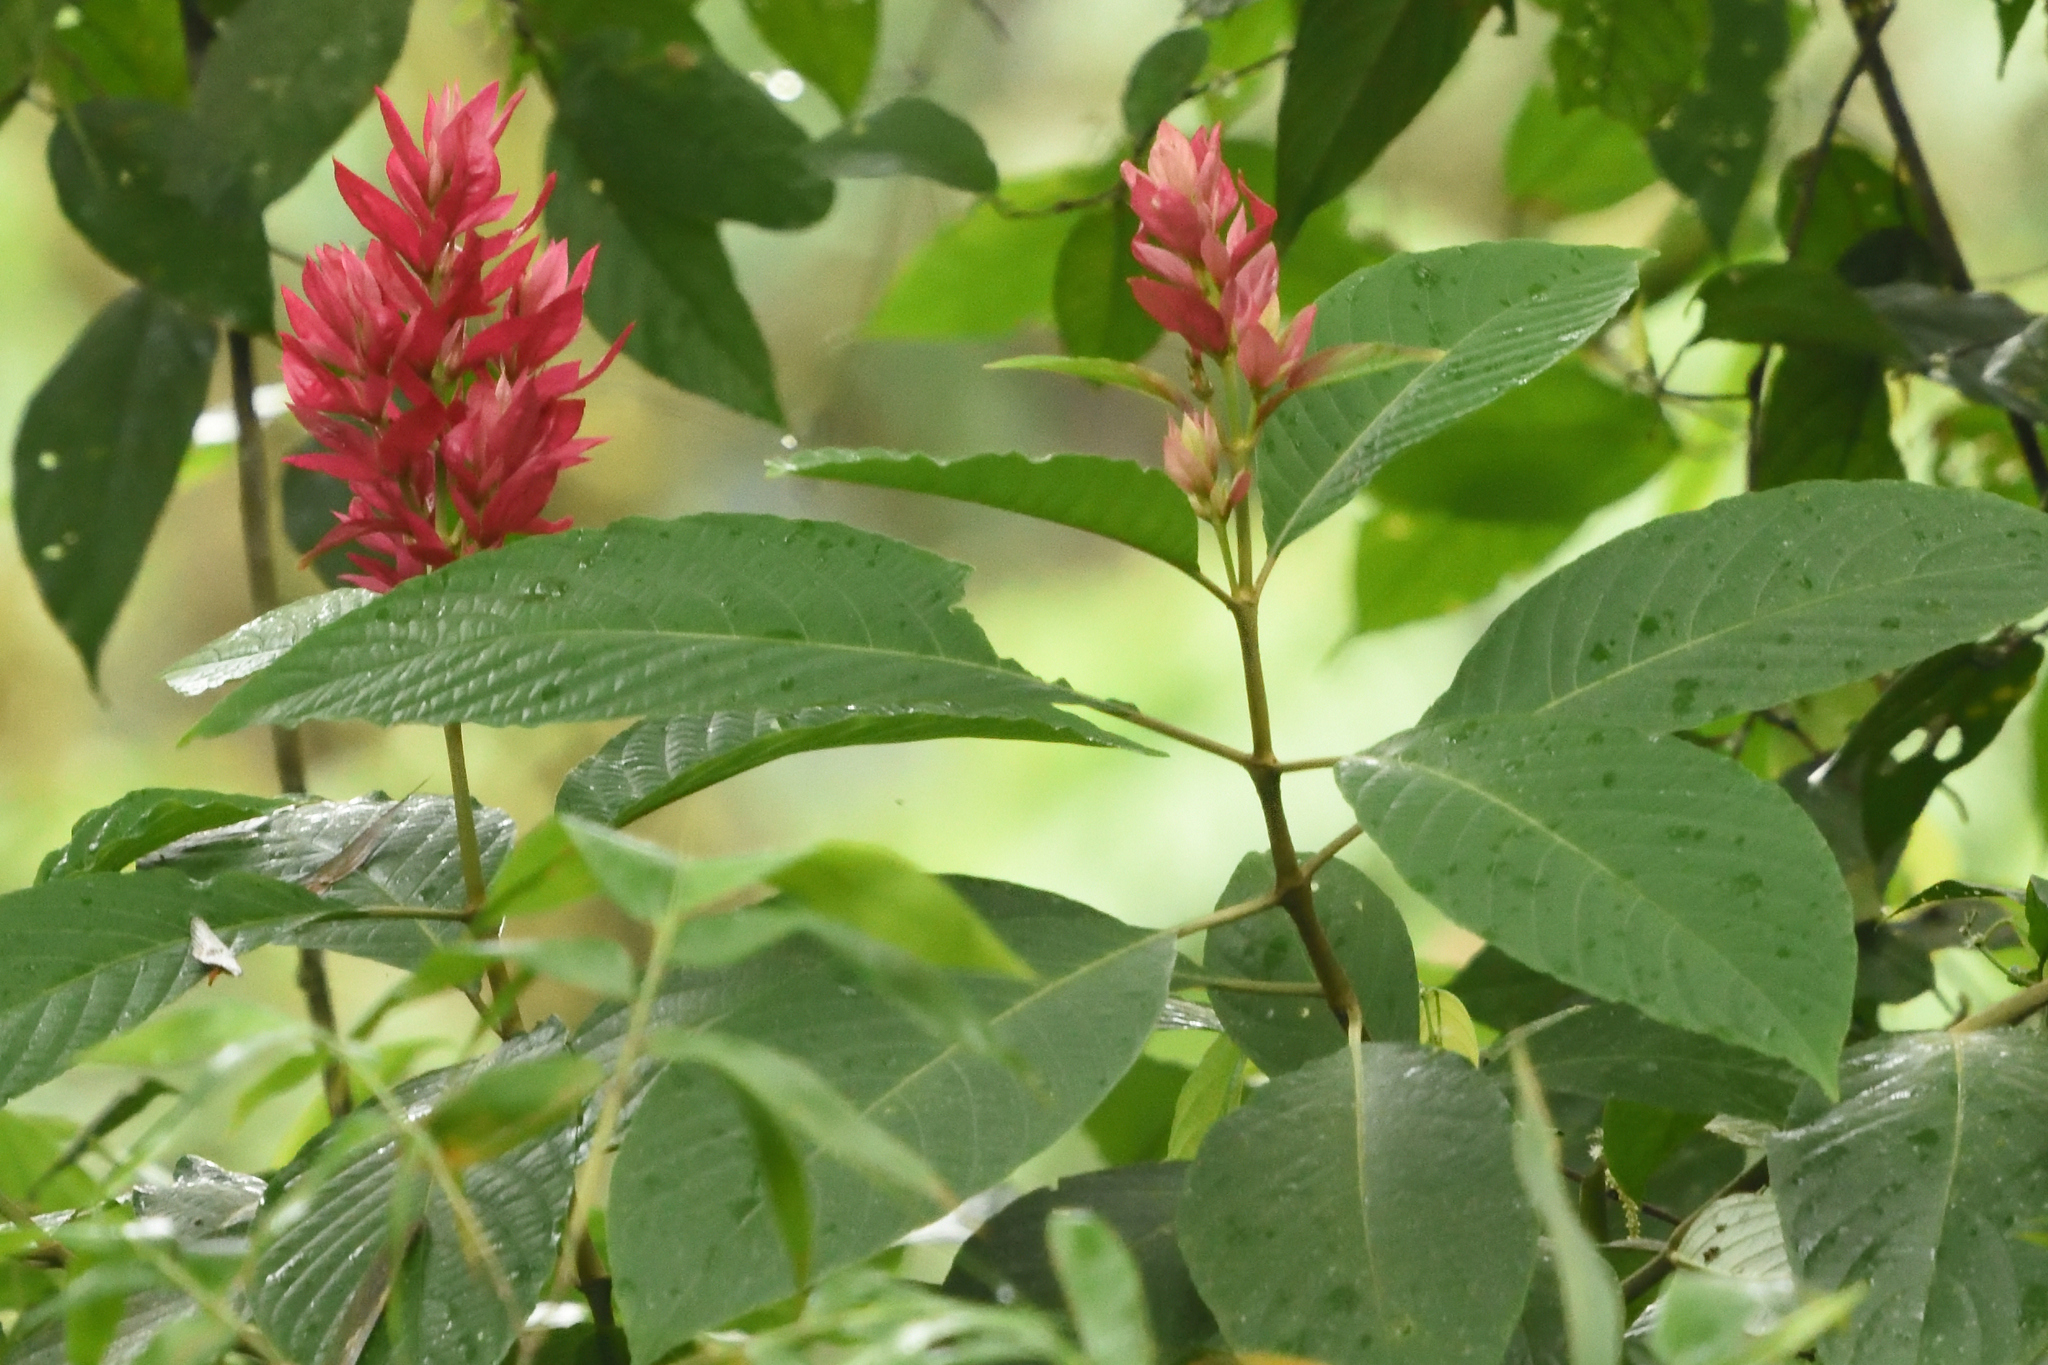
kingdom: Plantae
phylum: Tracheophyta
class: Magnoliopsida
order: Lamiales
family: Acanthaceae
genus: Megaskepasma
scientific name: Megaskepasma erythrochlamys
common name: Brazilian red-cloak
